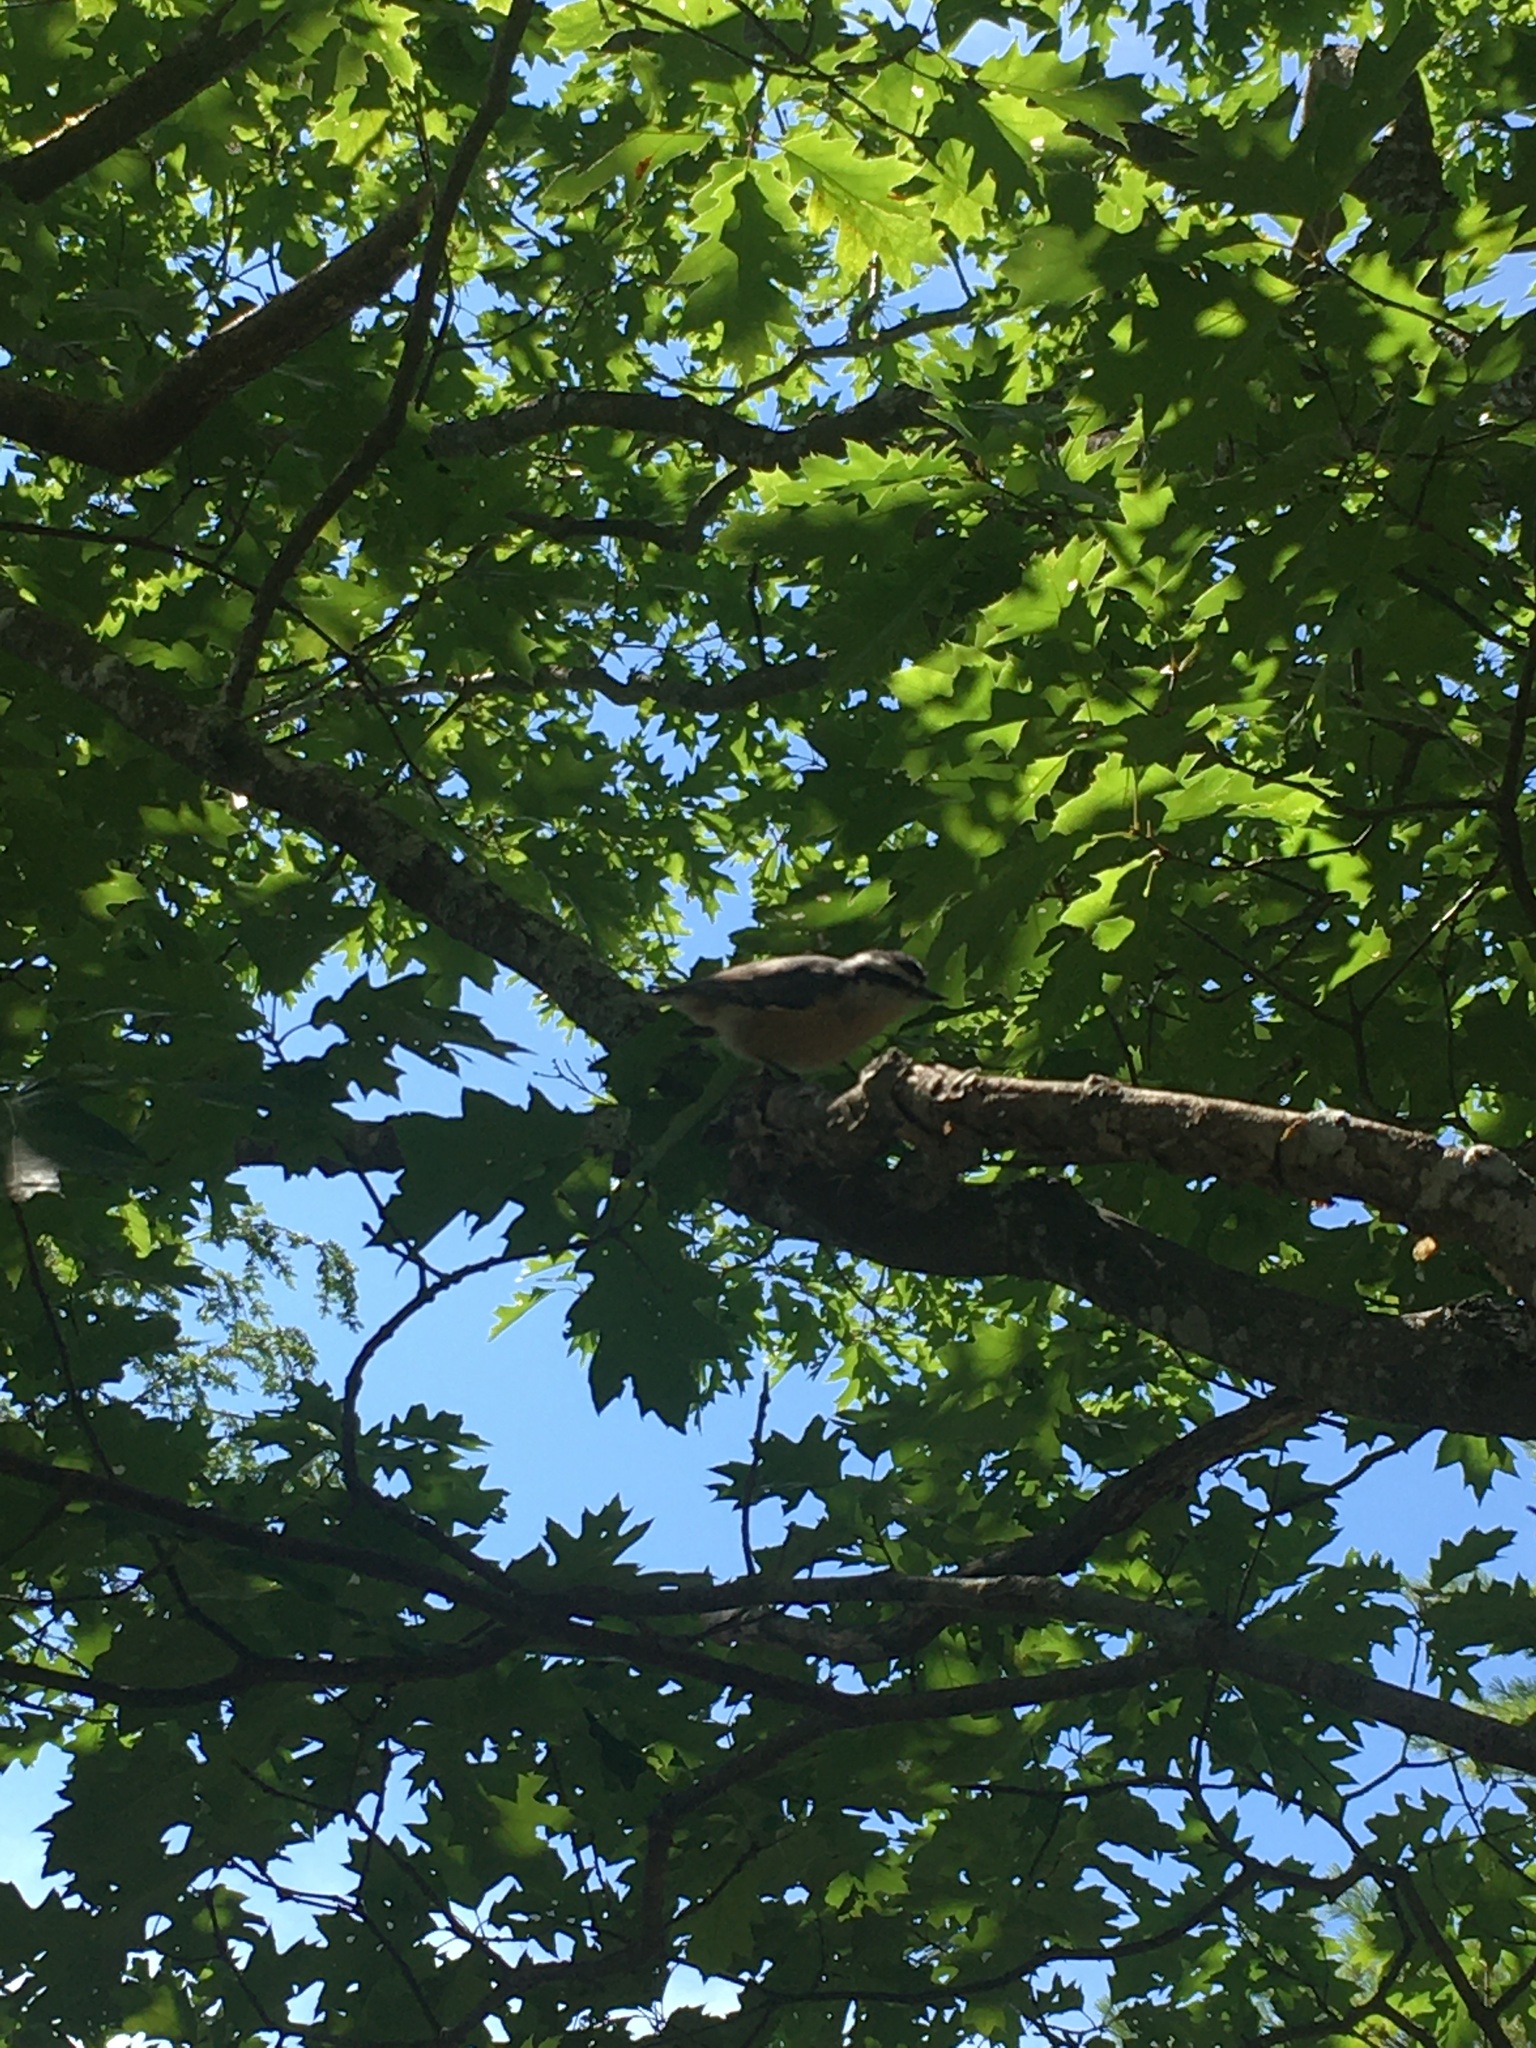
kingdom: Animalia
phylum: Chordata
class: Aves
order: Passeriformes
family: Sittidae
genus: Sitta
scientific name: Sitta canadensis
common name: Red-breasted nuthatch
